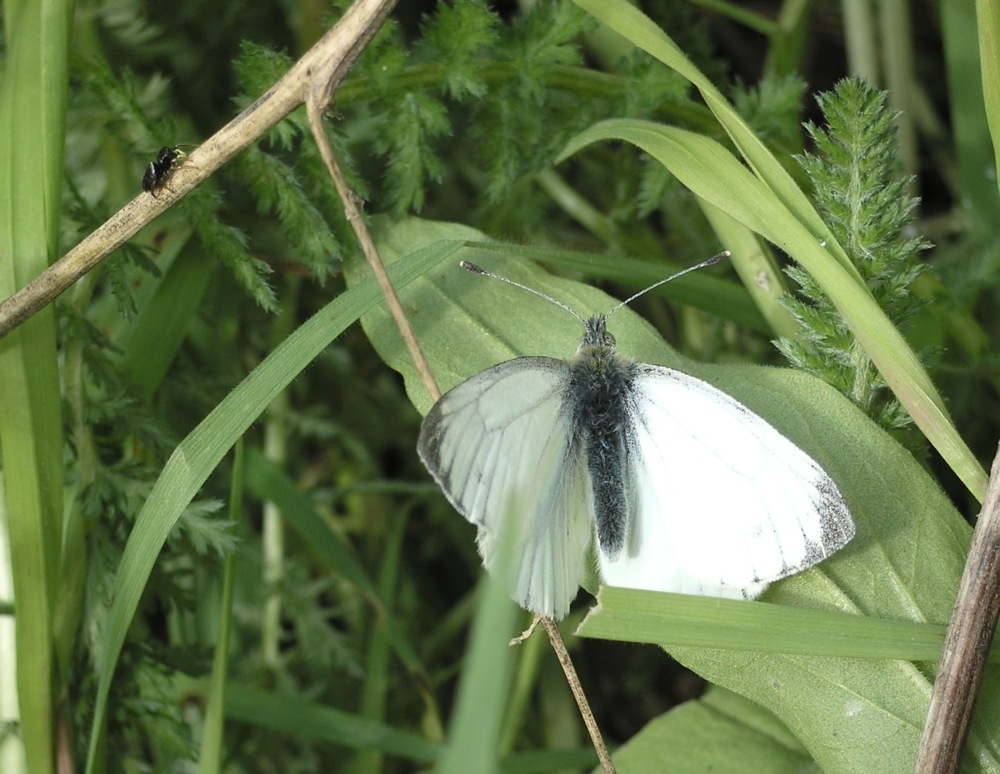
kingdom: Animalia
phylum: Arthropoda
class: Insecta
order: Lepidoptera
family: Pieridae
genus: Pieris
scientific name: Pieris napi
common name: Green-veined white
